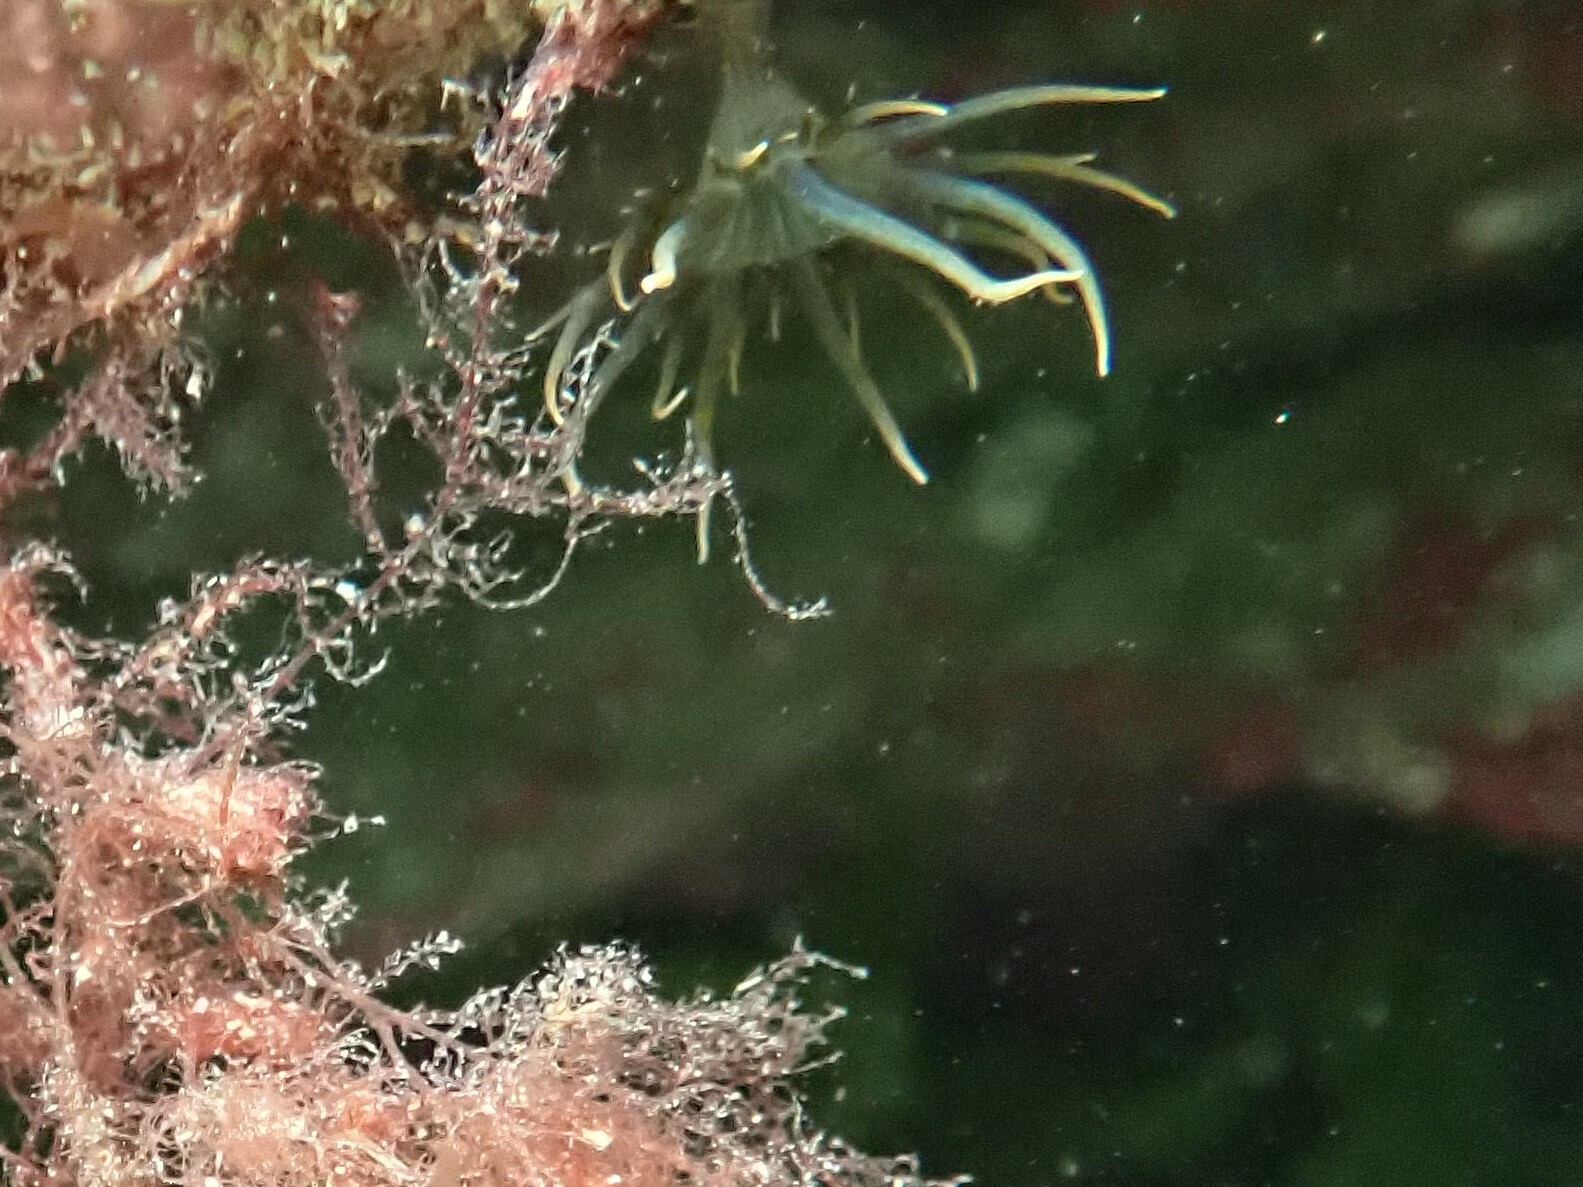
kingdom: Animalia
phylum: Cnidaria
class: Anthozoa
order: Actiniaria
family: Aiptasiidae
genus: Aiptasia
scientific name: Aiptasia couchii
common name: Trumpet anemone
